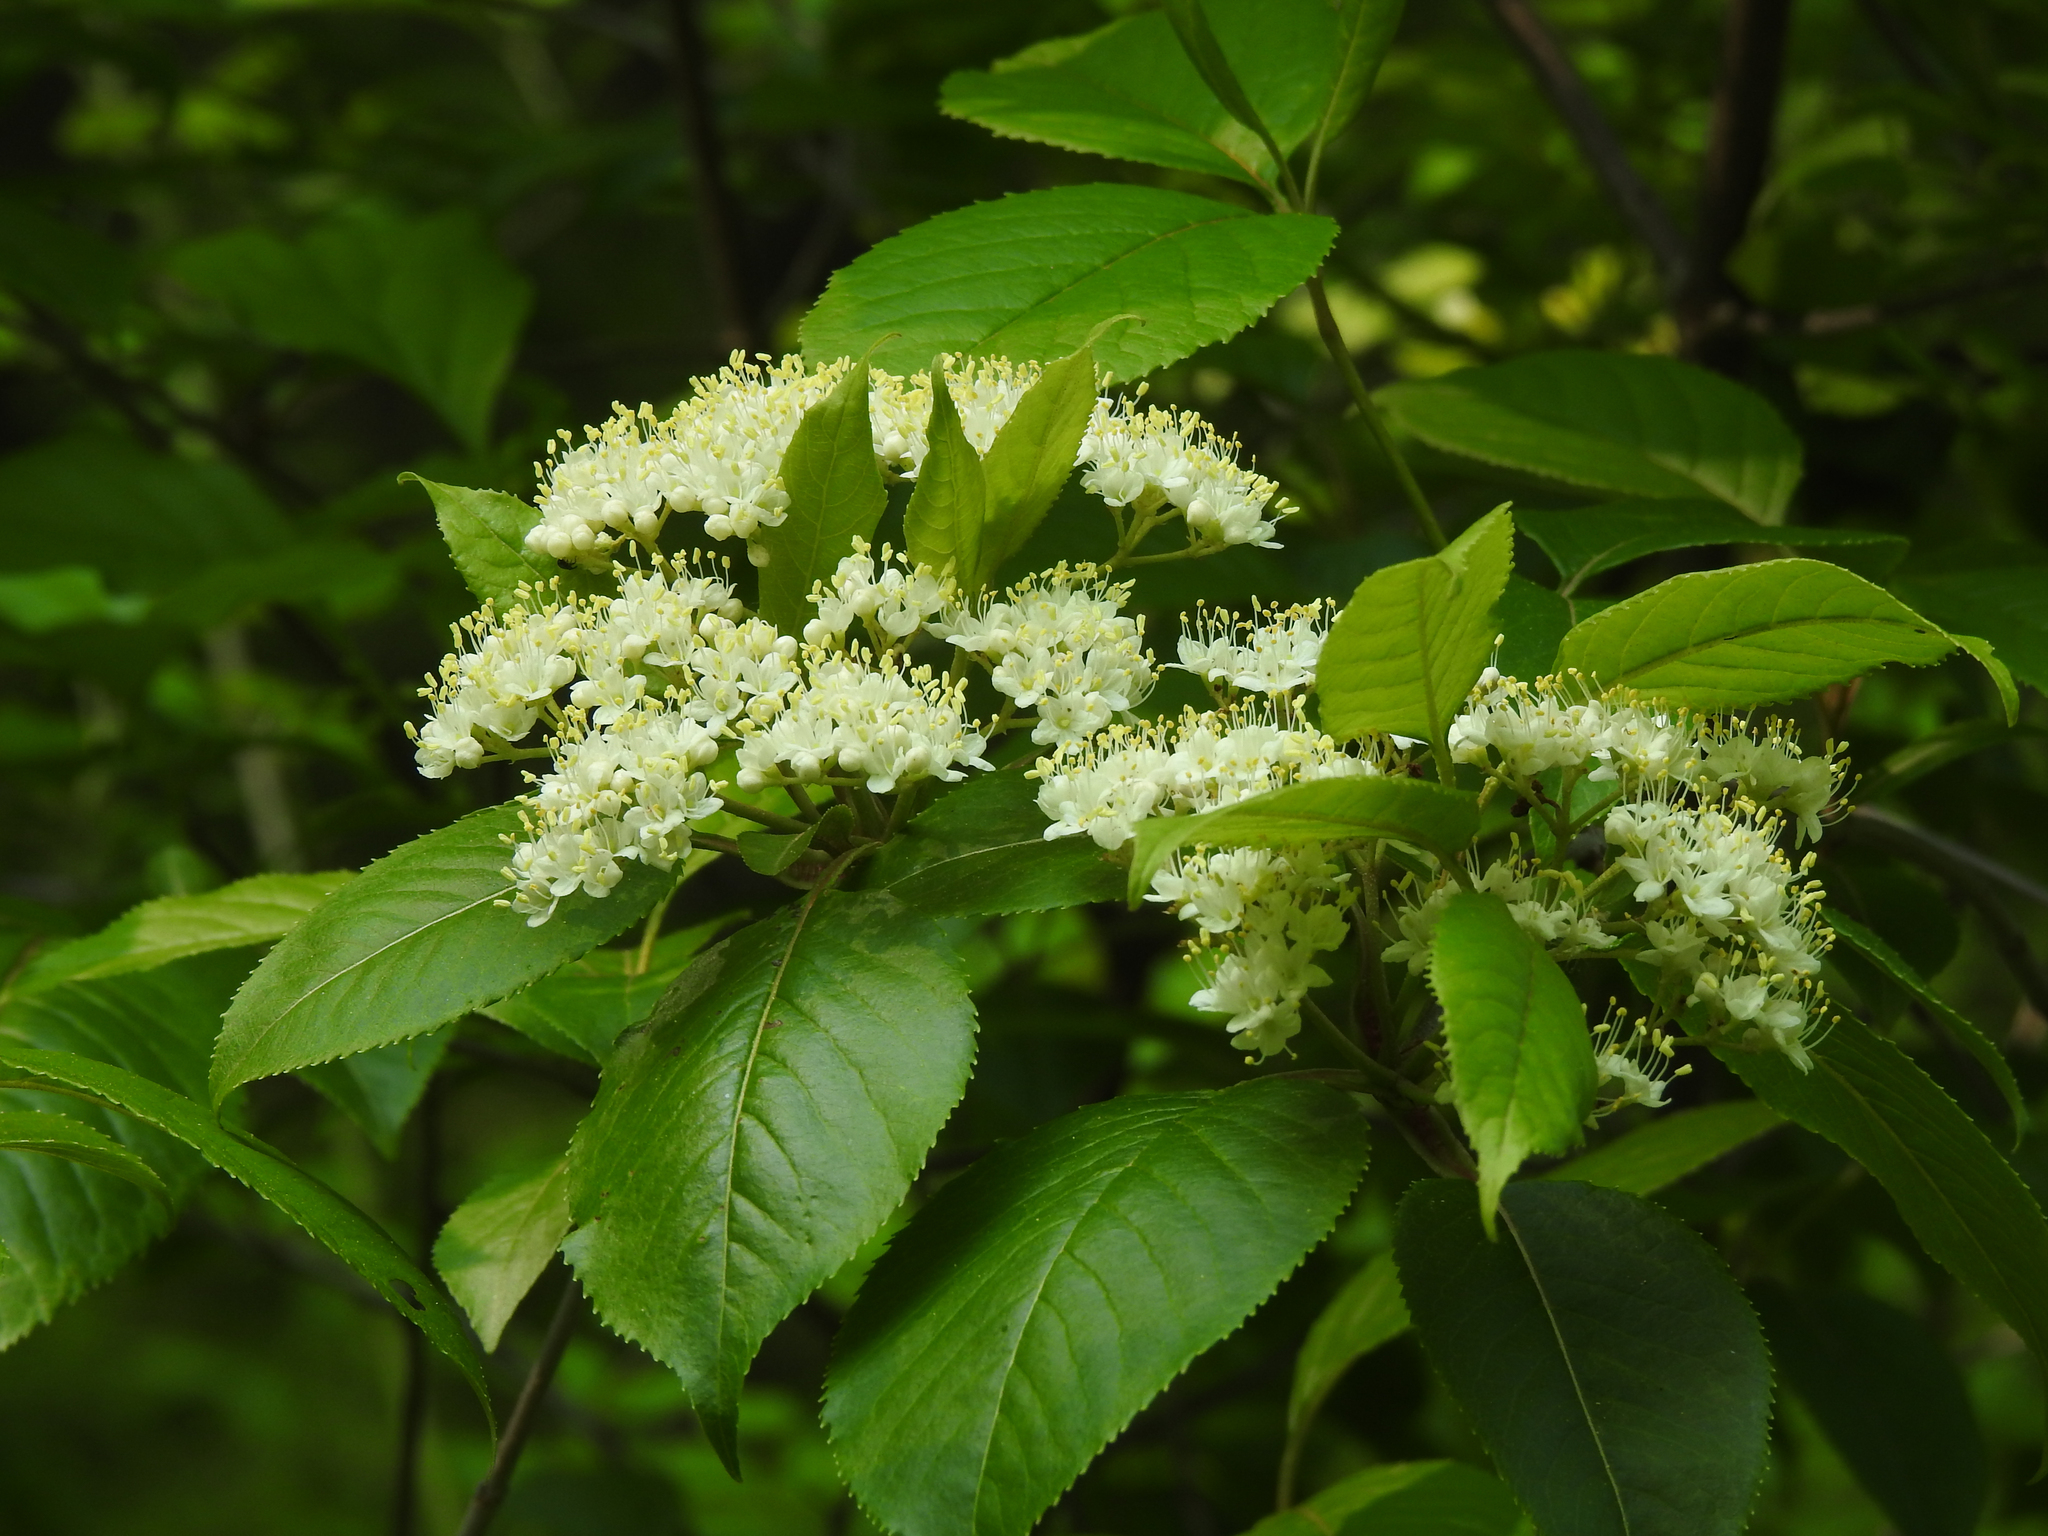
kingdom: Plantae
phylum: Tracheophyta
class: Magnoliopsida
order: Dipsacales
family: Viburnaceae
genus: Viburnum
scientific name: Viburnum lentago
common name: Black haw
